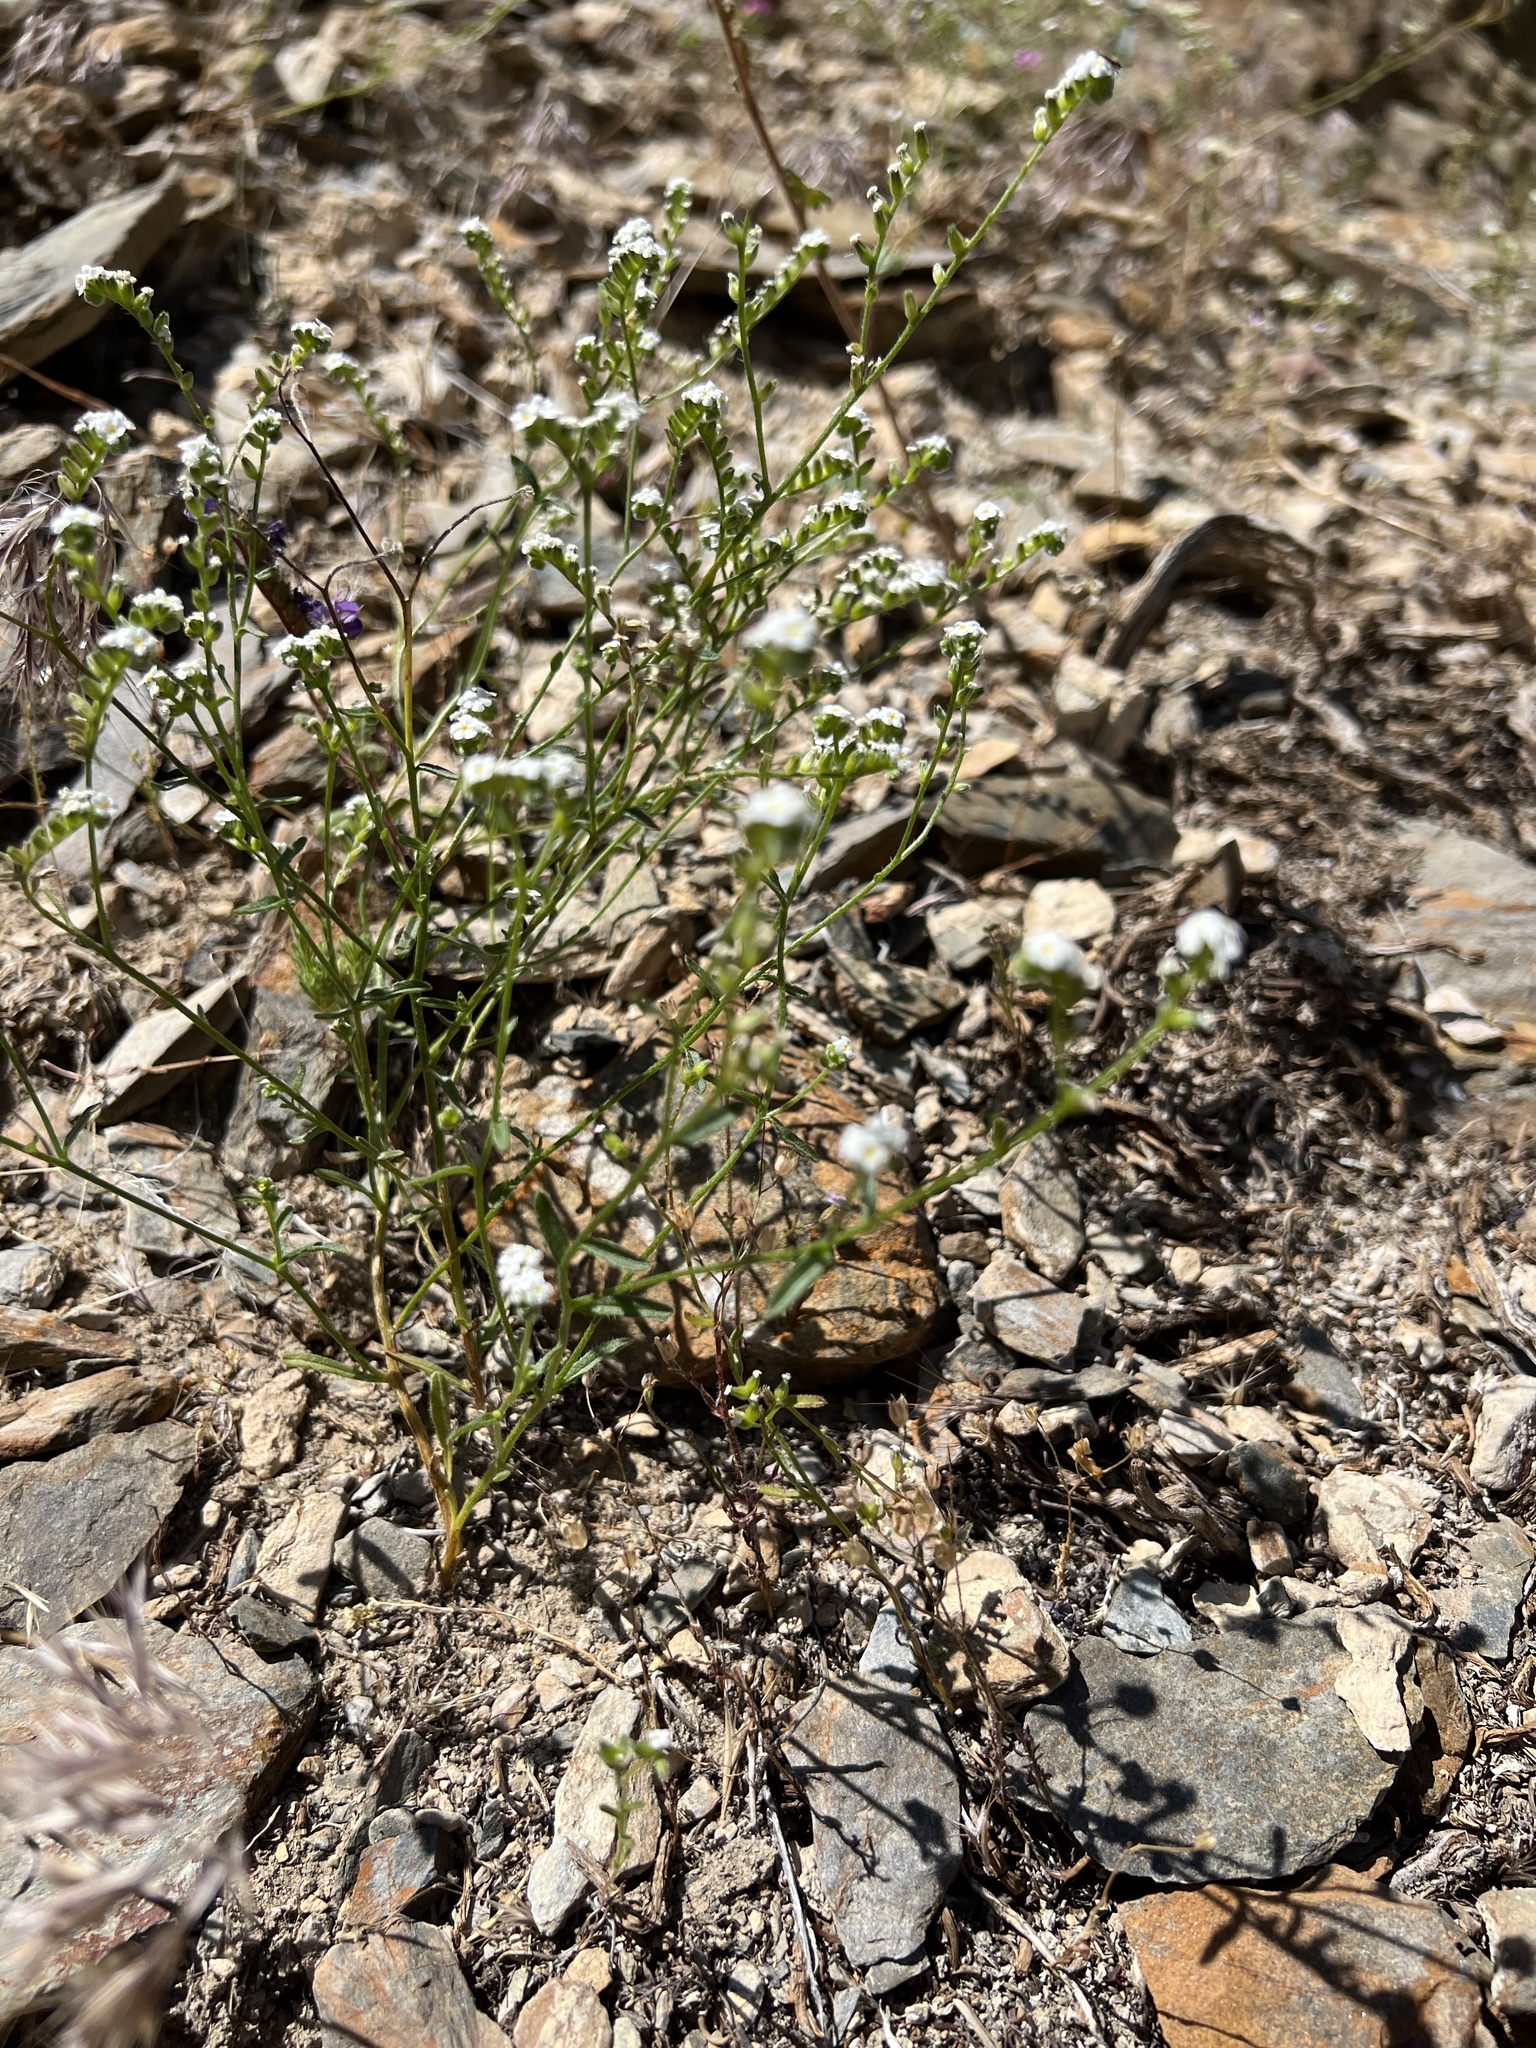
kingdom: Plantae
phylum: Tracheophyta
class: Magnoliopsida
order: Boraginales
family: Boraginaceae
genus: Cryptantha
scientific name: Cryptantha utahensis
